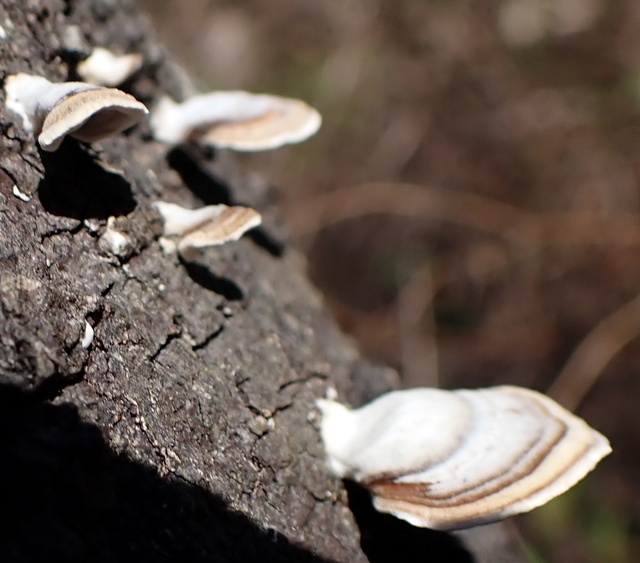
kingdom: Fungi
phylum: Basidiomycota
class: Agaricomycetes
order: Russulales
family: Stereaceae
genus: Stereum
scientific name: Stereum lobatum
